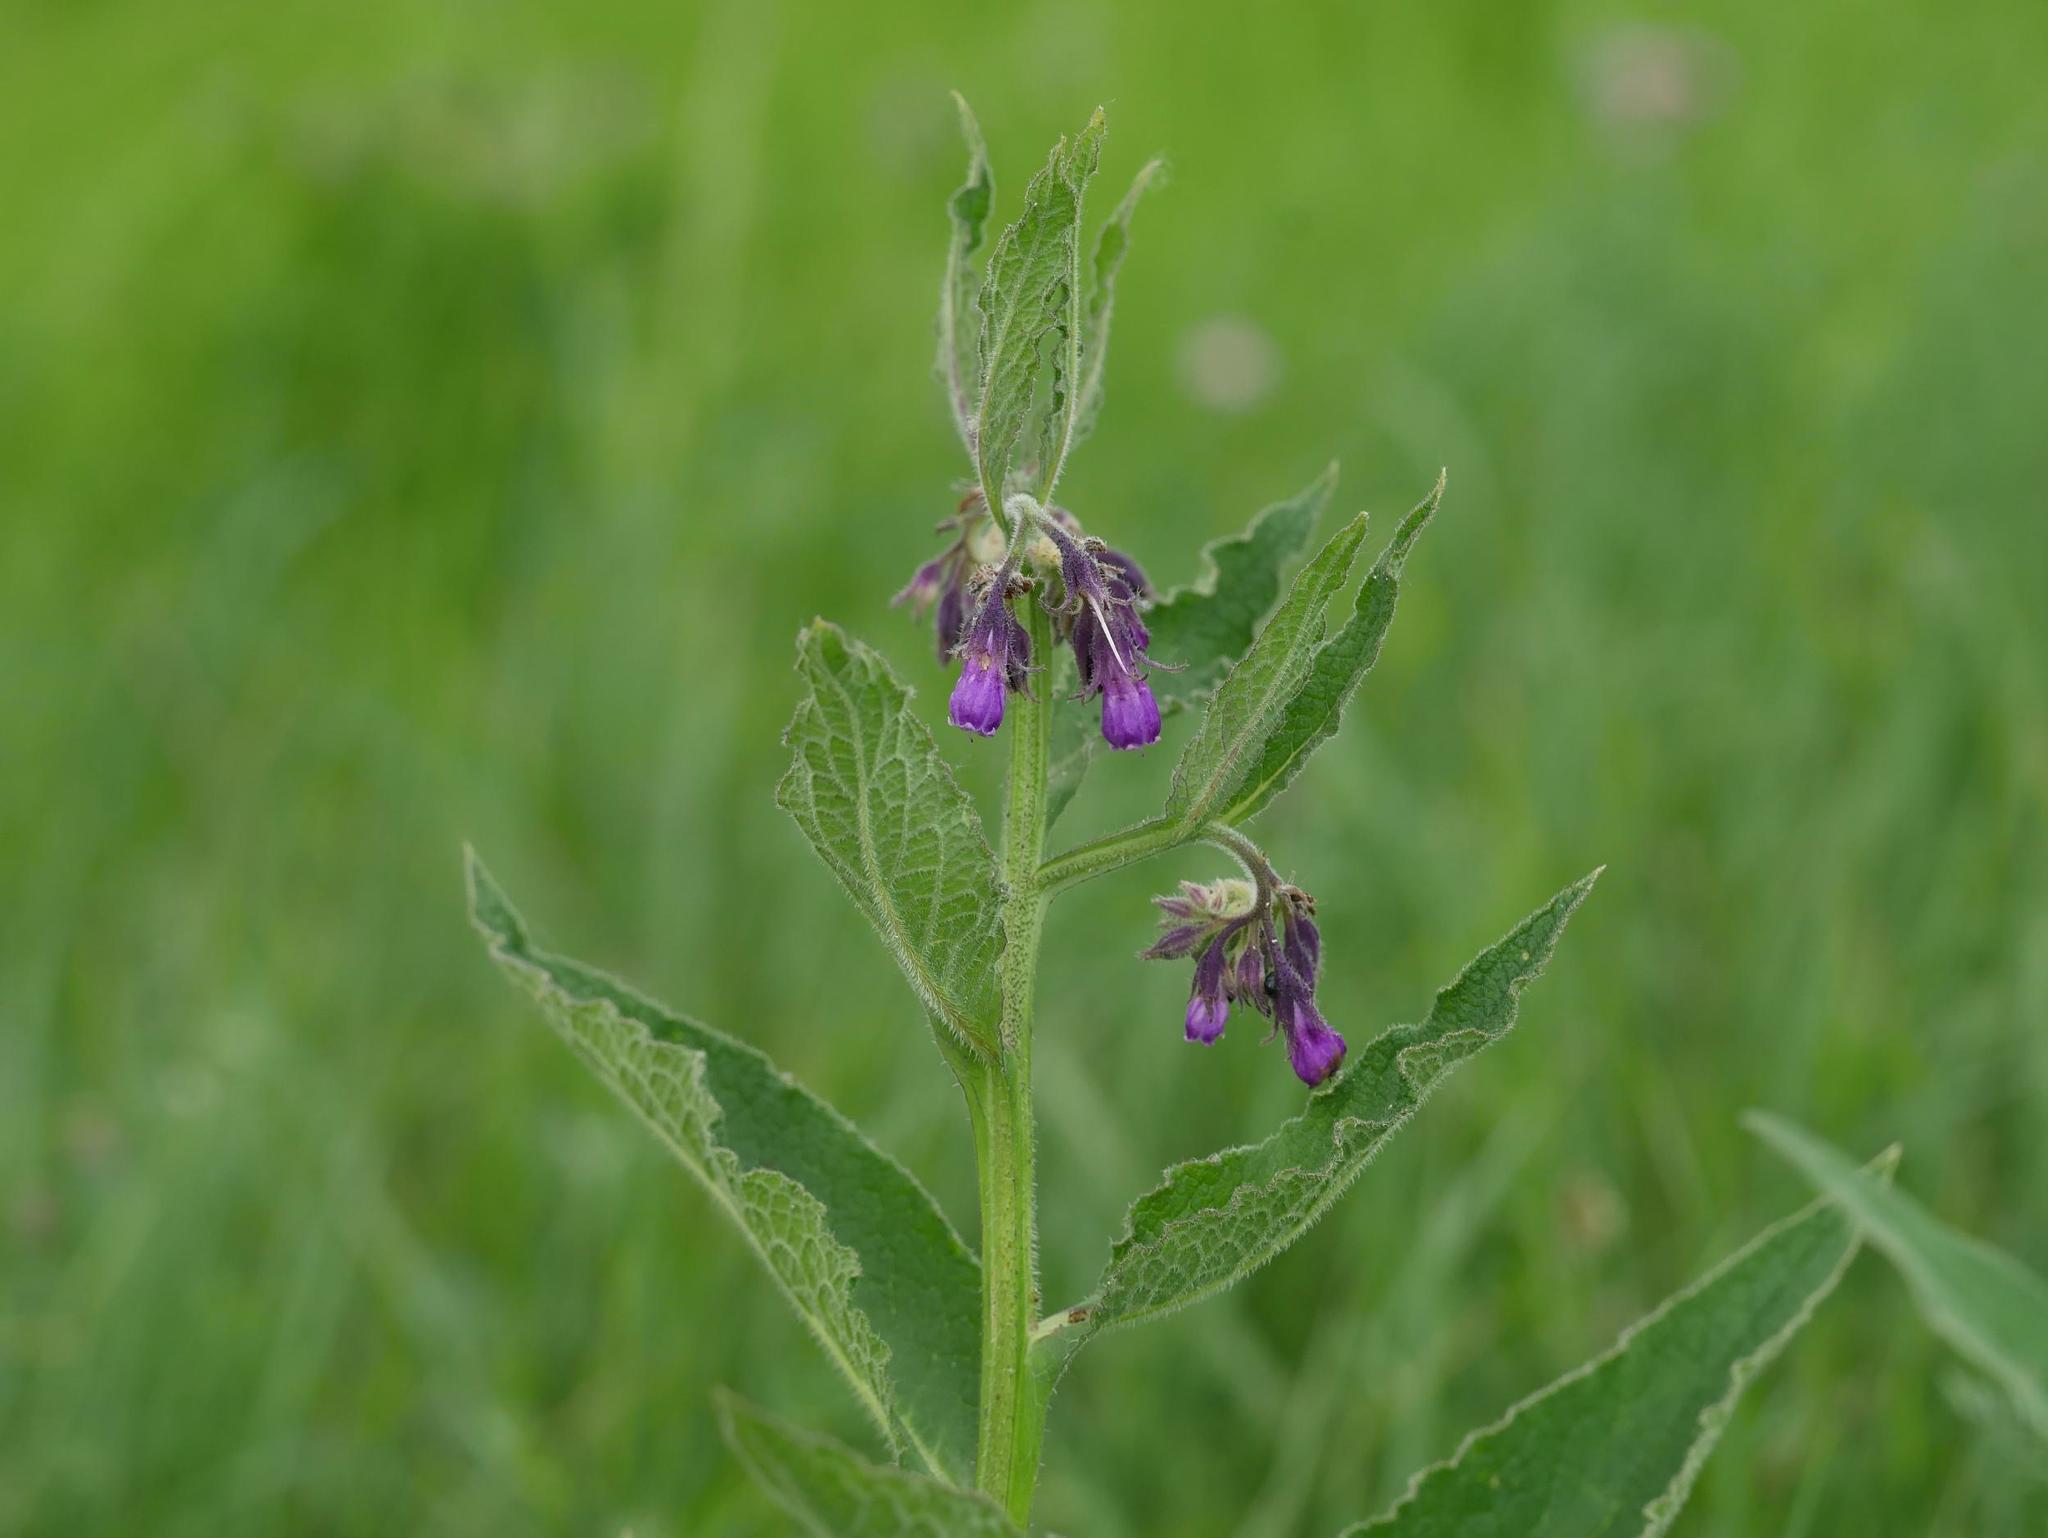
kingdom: Plantae
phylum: Tracheophyta
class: Magnoliopsida
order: Boraginales
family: Boraginaceae
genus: Symphytum
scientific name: Symphytum officinale
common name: Common comfrey
